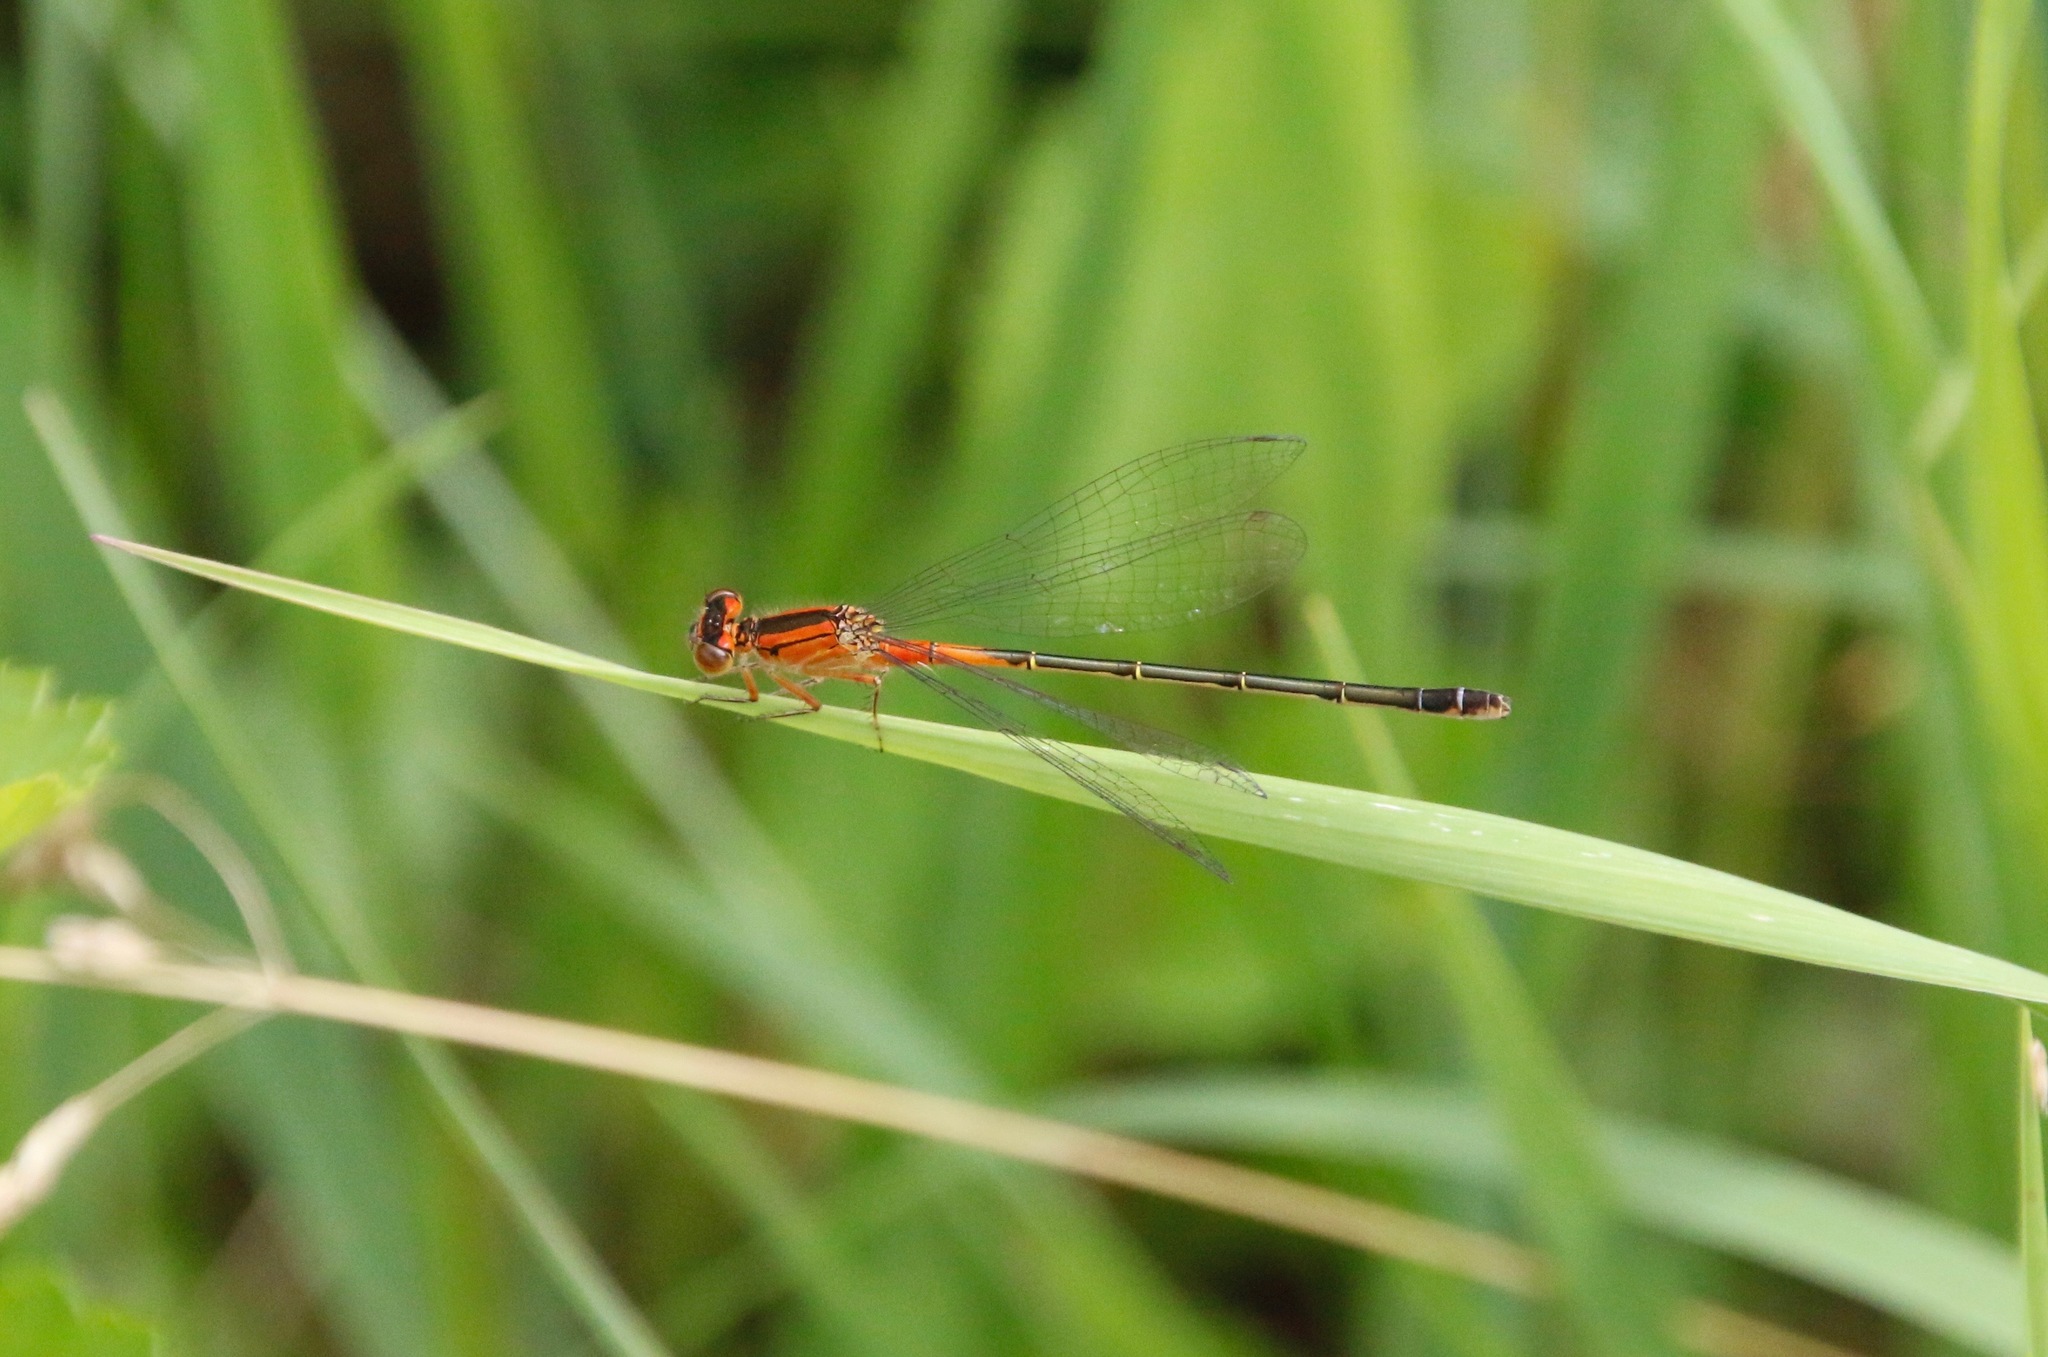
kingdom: Animalia
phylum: Arthropoda
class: Insecta
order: Odonata
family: Coenagrionidae
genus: Ischnura
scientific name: Ischnura verticalis
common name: Eastern forktail
